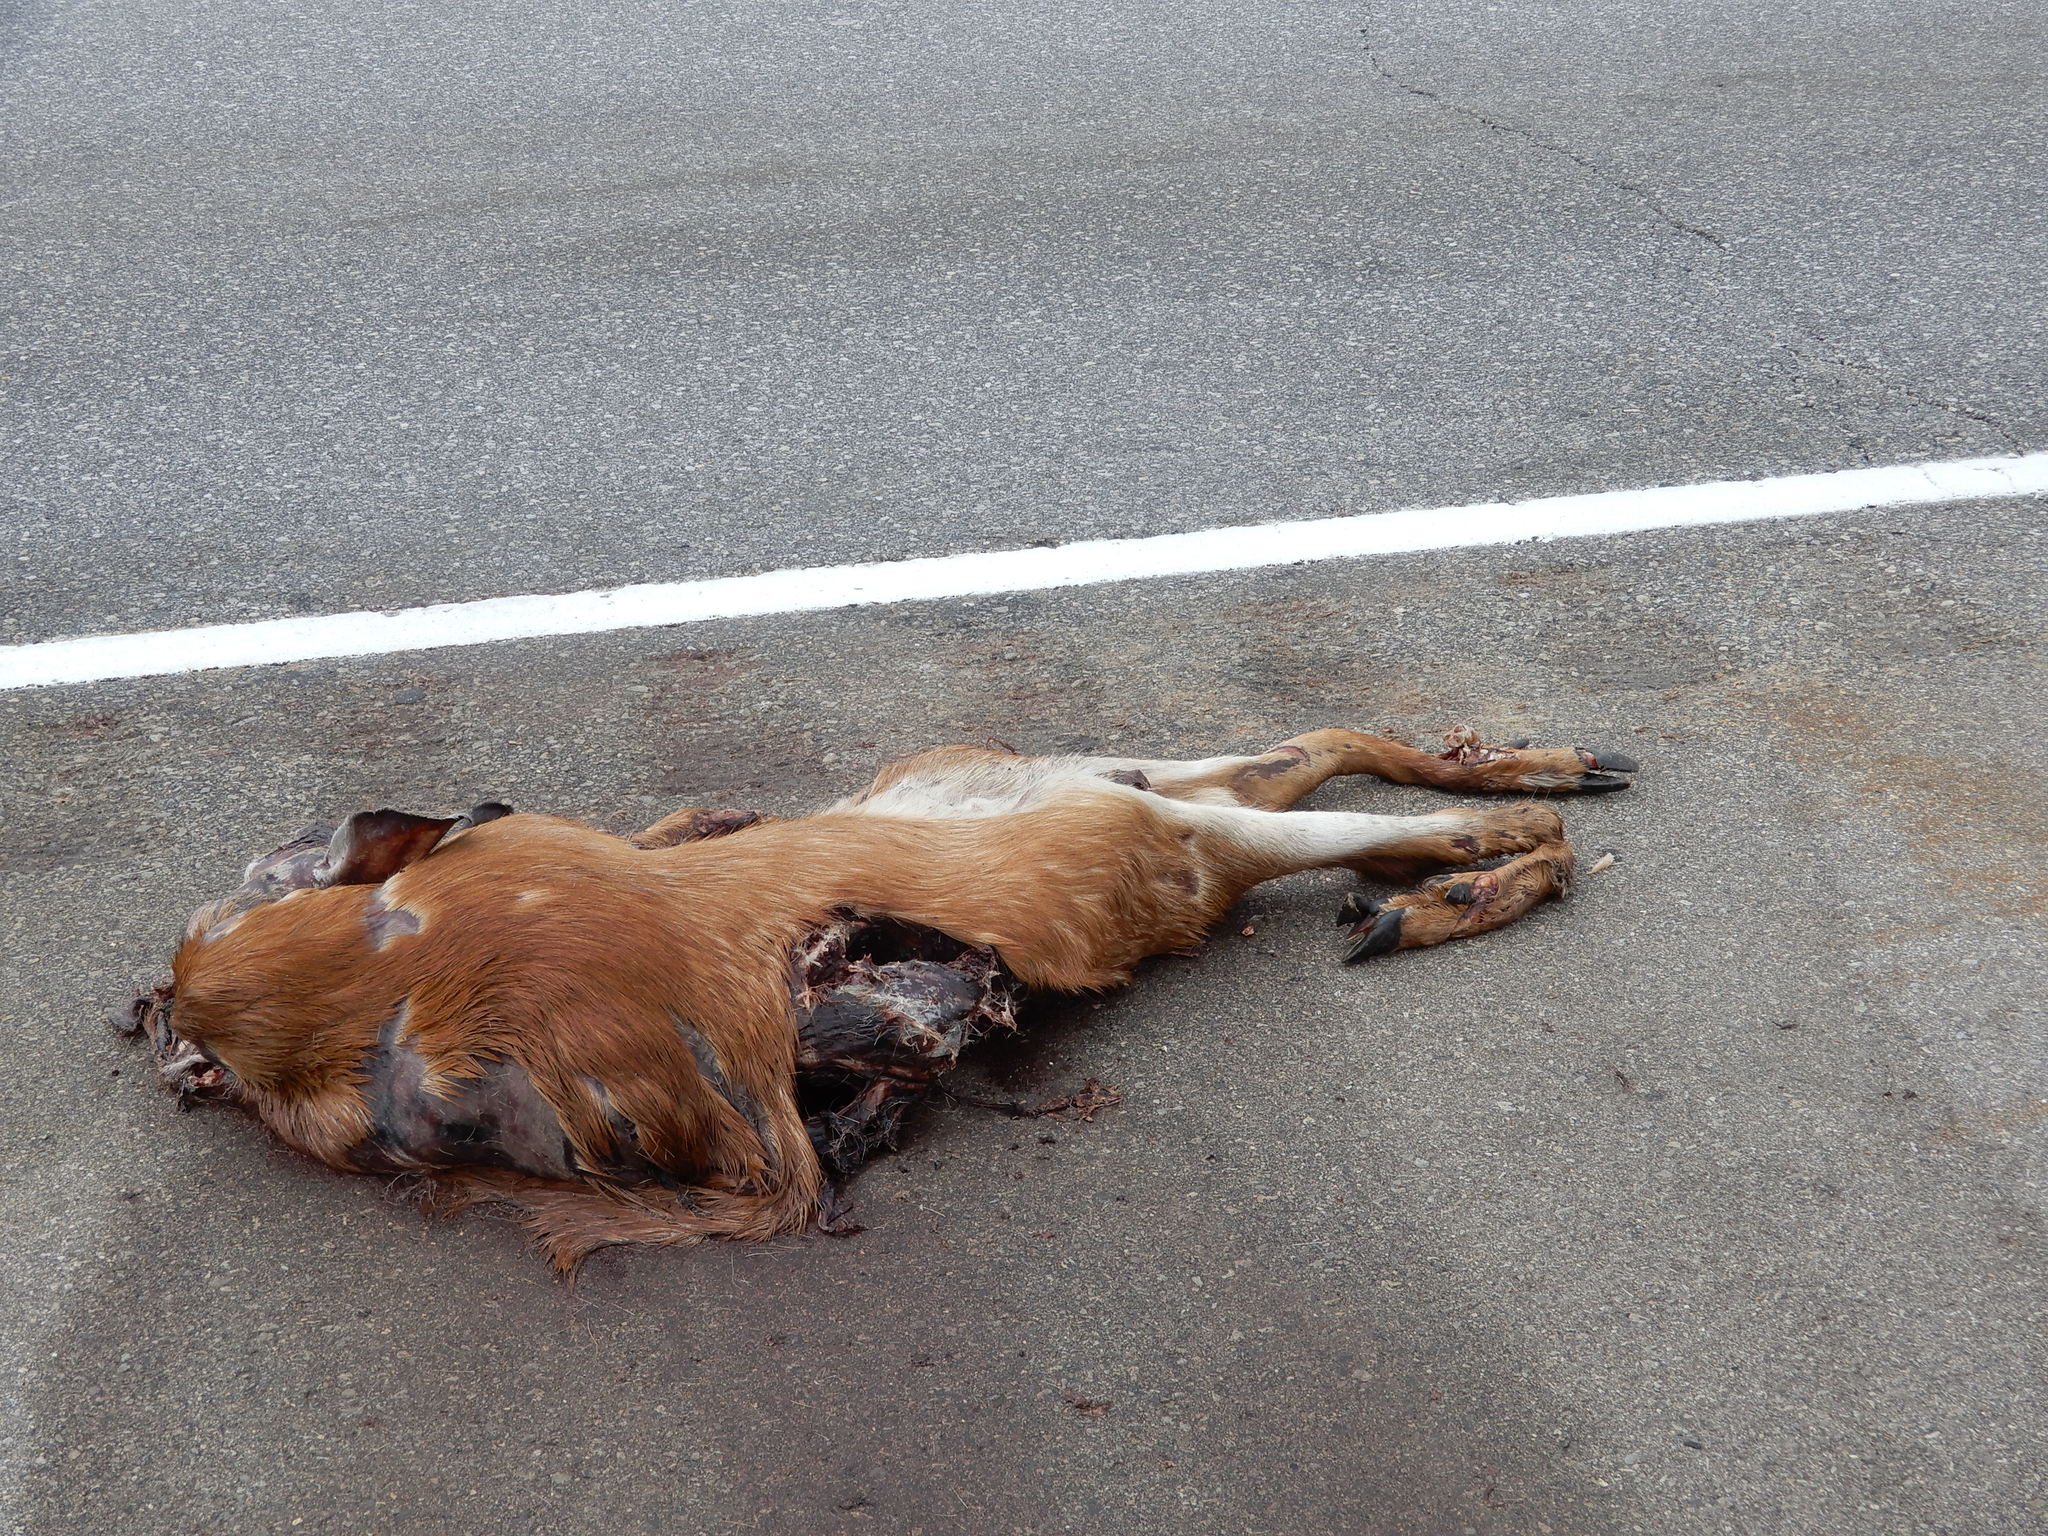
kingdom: Animalia
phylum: Chordata
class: Mammalia
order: Artiodactyla
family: Cervidae
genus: Odocoileus
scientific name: Odocoileus virginianus
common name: White-tailed deer
